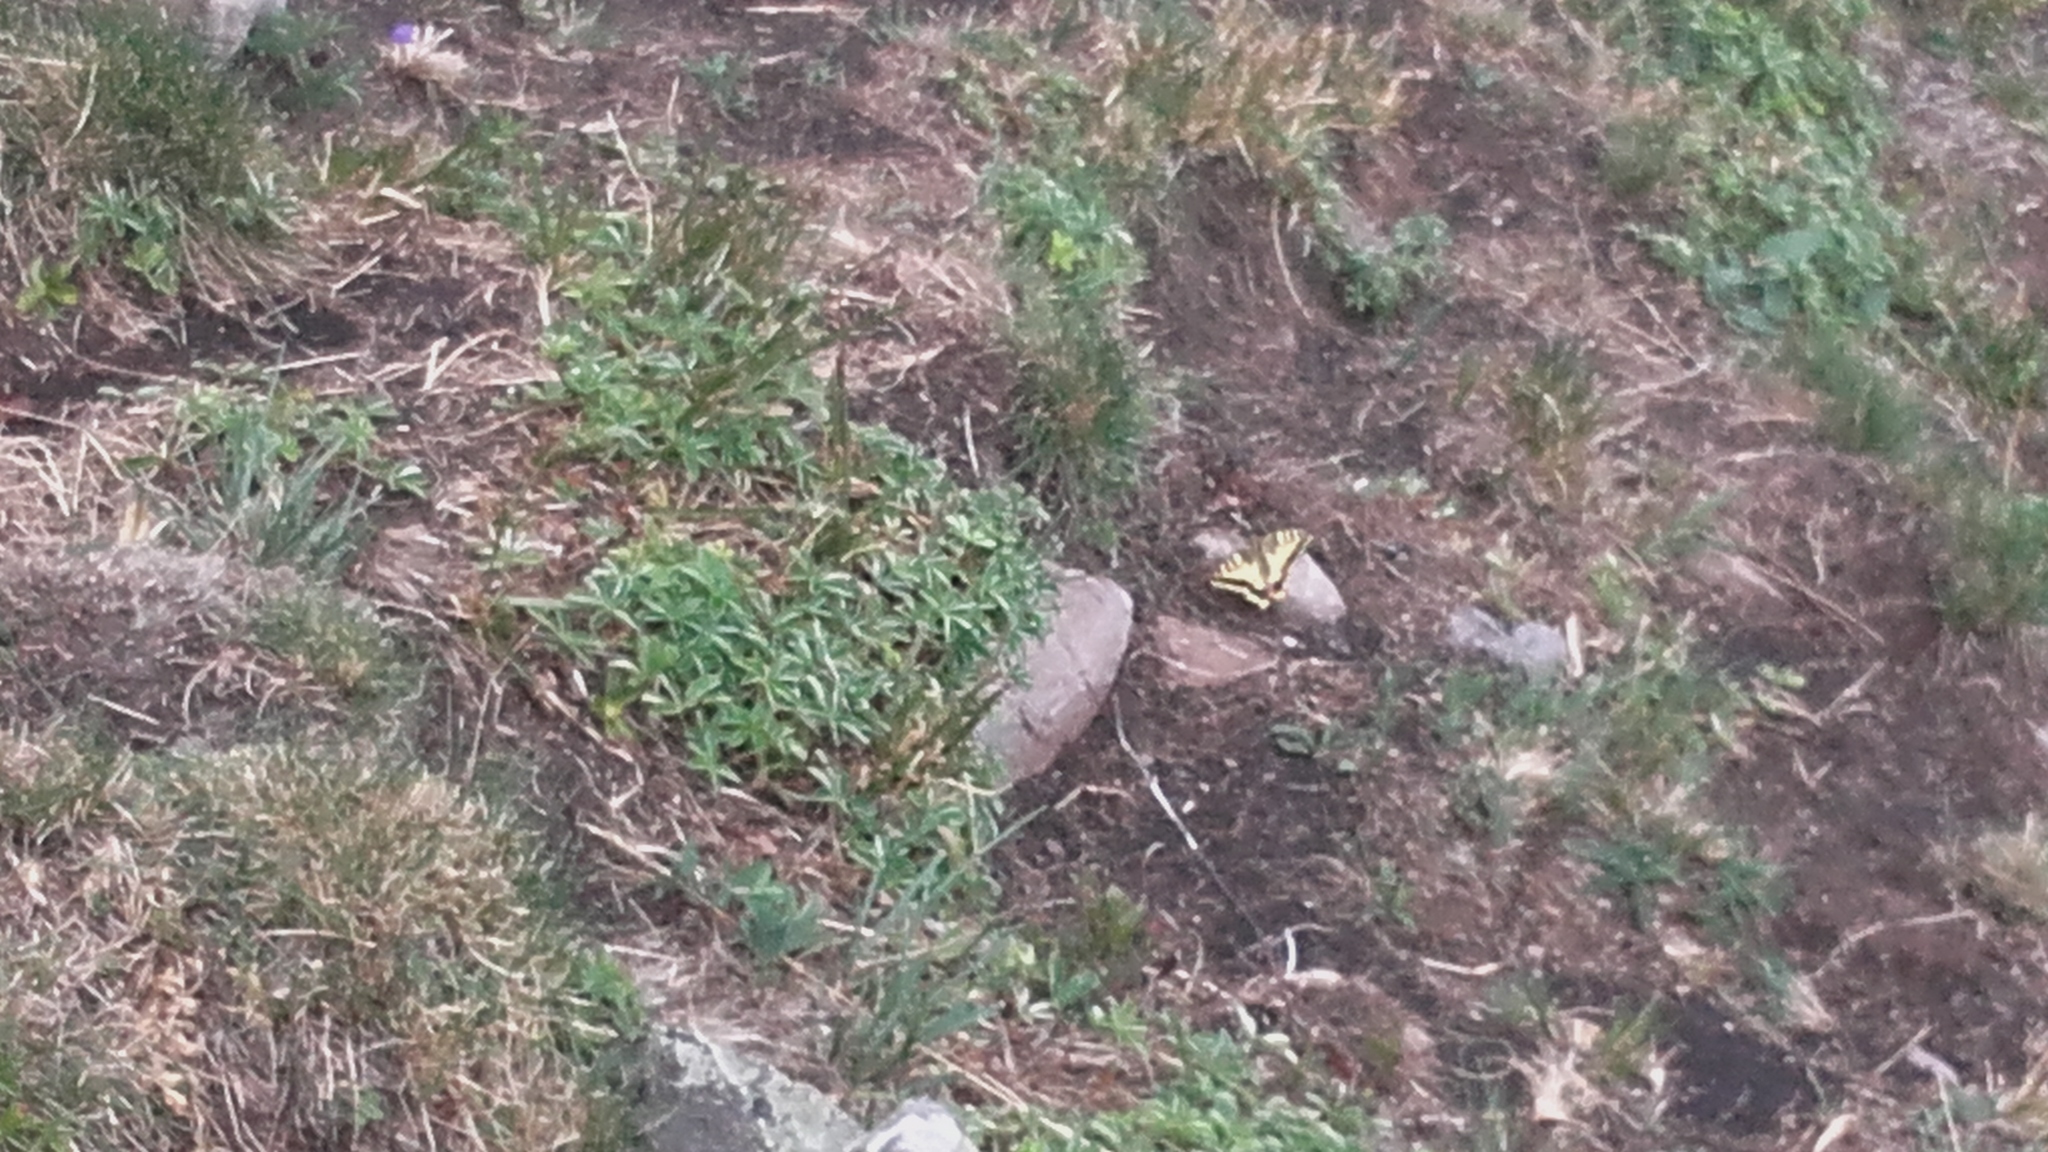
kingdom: Animalia
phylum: Arthropoda
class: Insecta
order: Lepidoptera
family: Papilionidae
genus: Papilio
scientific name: Papilio machaon
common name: Swallowtail
